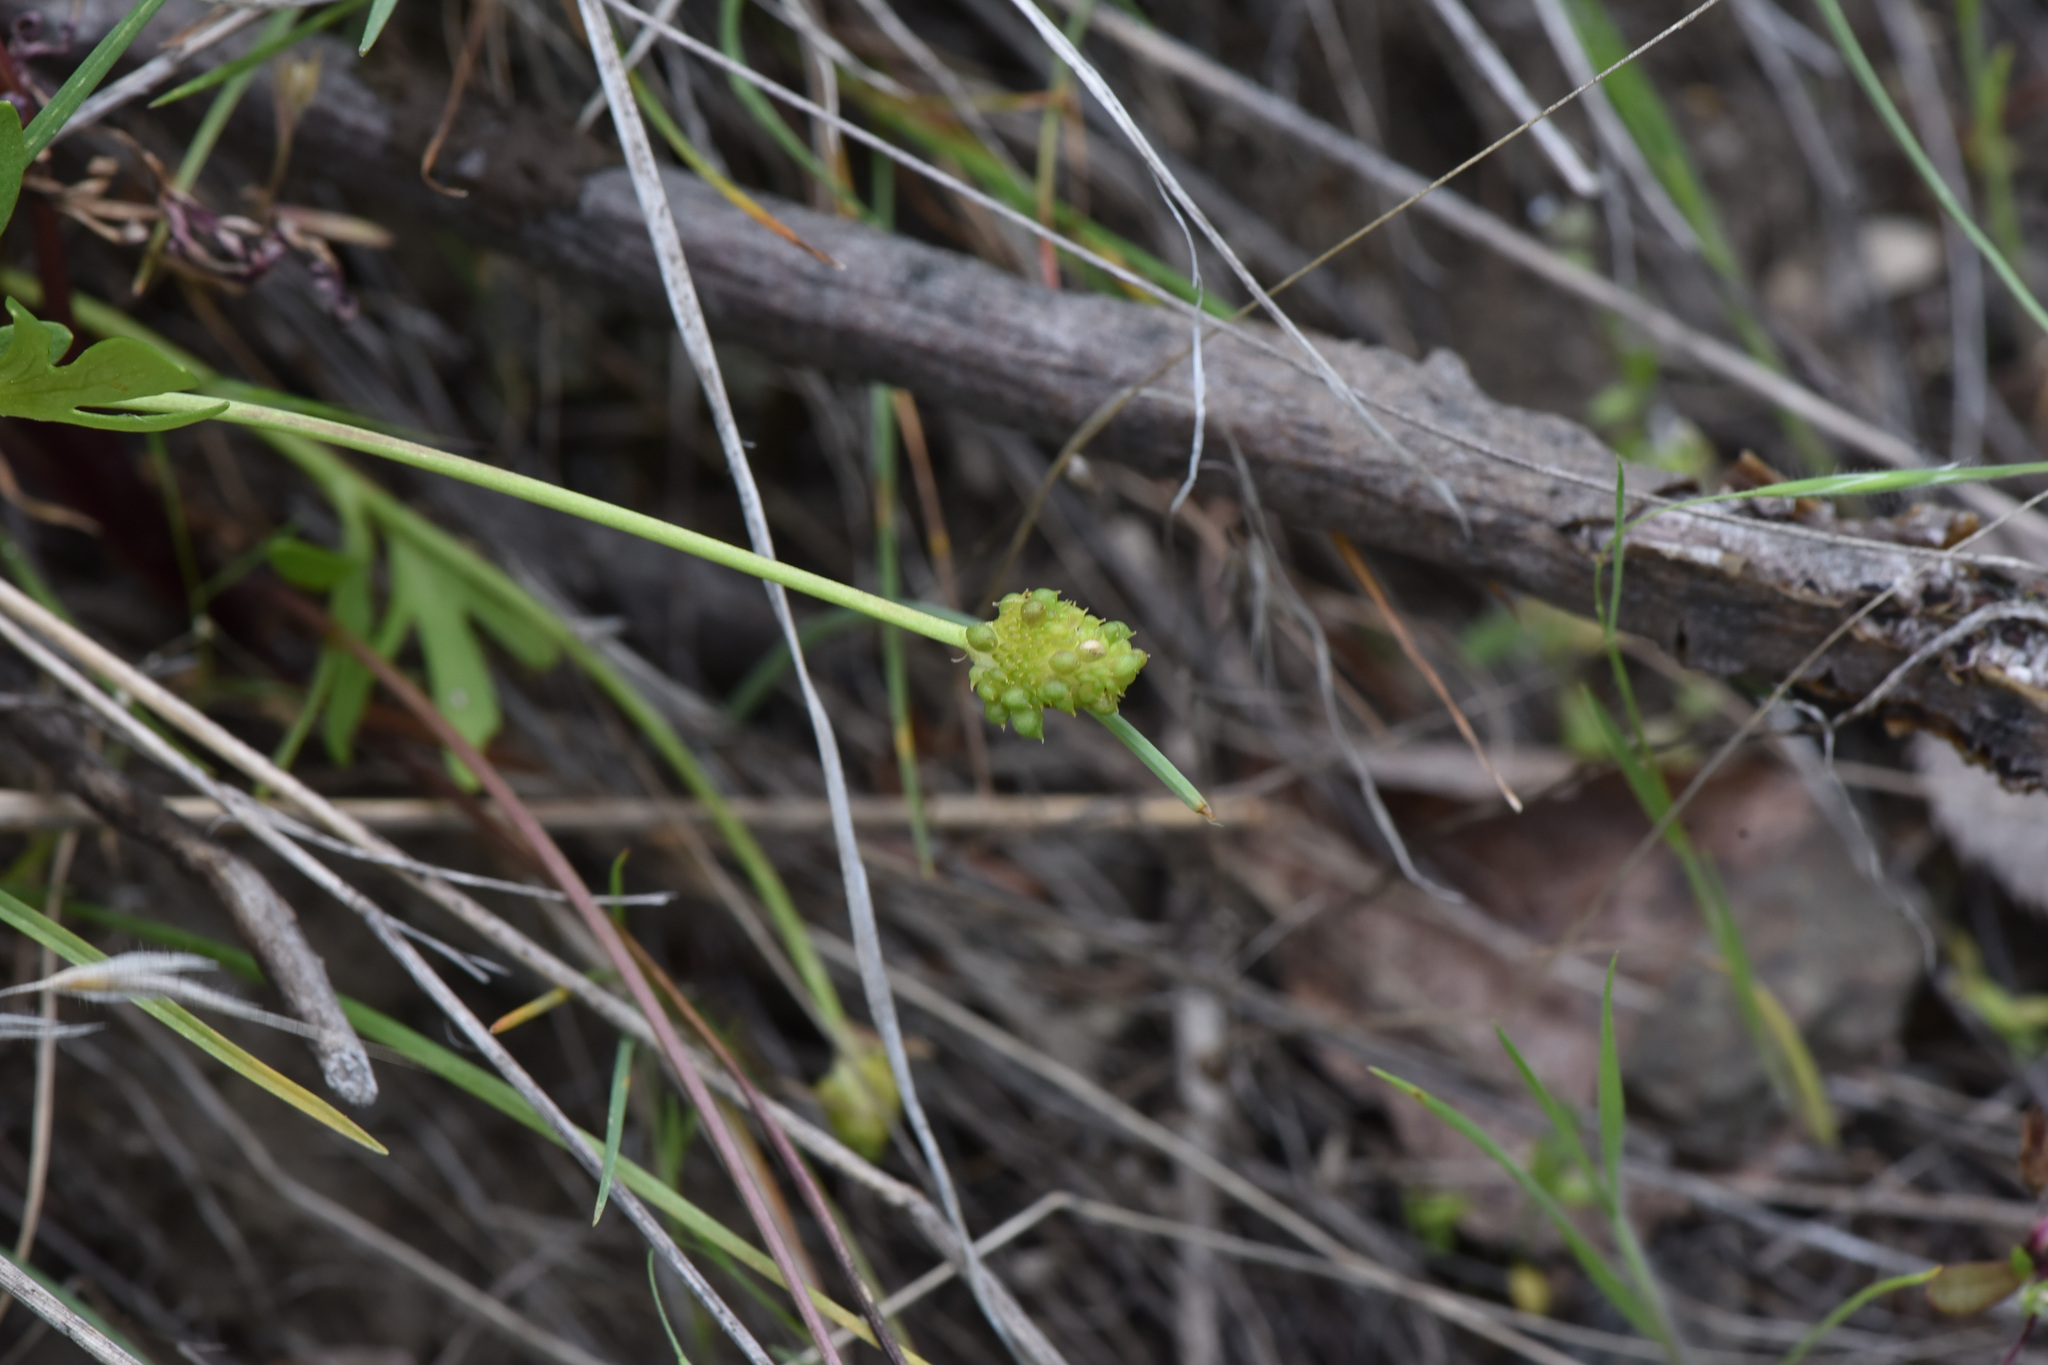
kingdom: Plantae
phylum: Tracheophyta
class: Magnoliopsida
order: Ranunculales
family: Ranunculaceae
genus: Ranunculus
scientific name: Ranunculus glaberrimus
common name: Sagebrush buttercup
